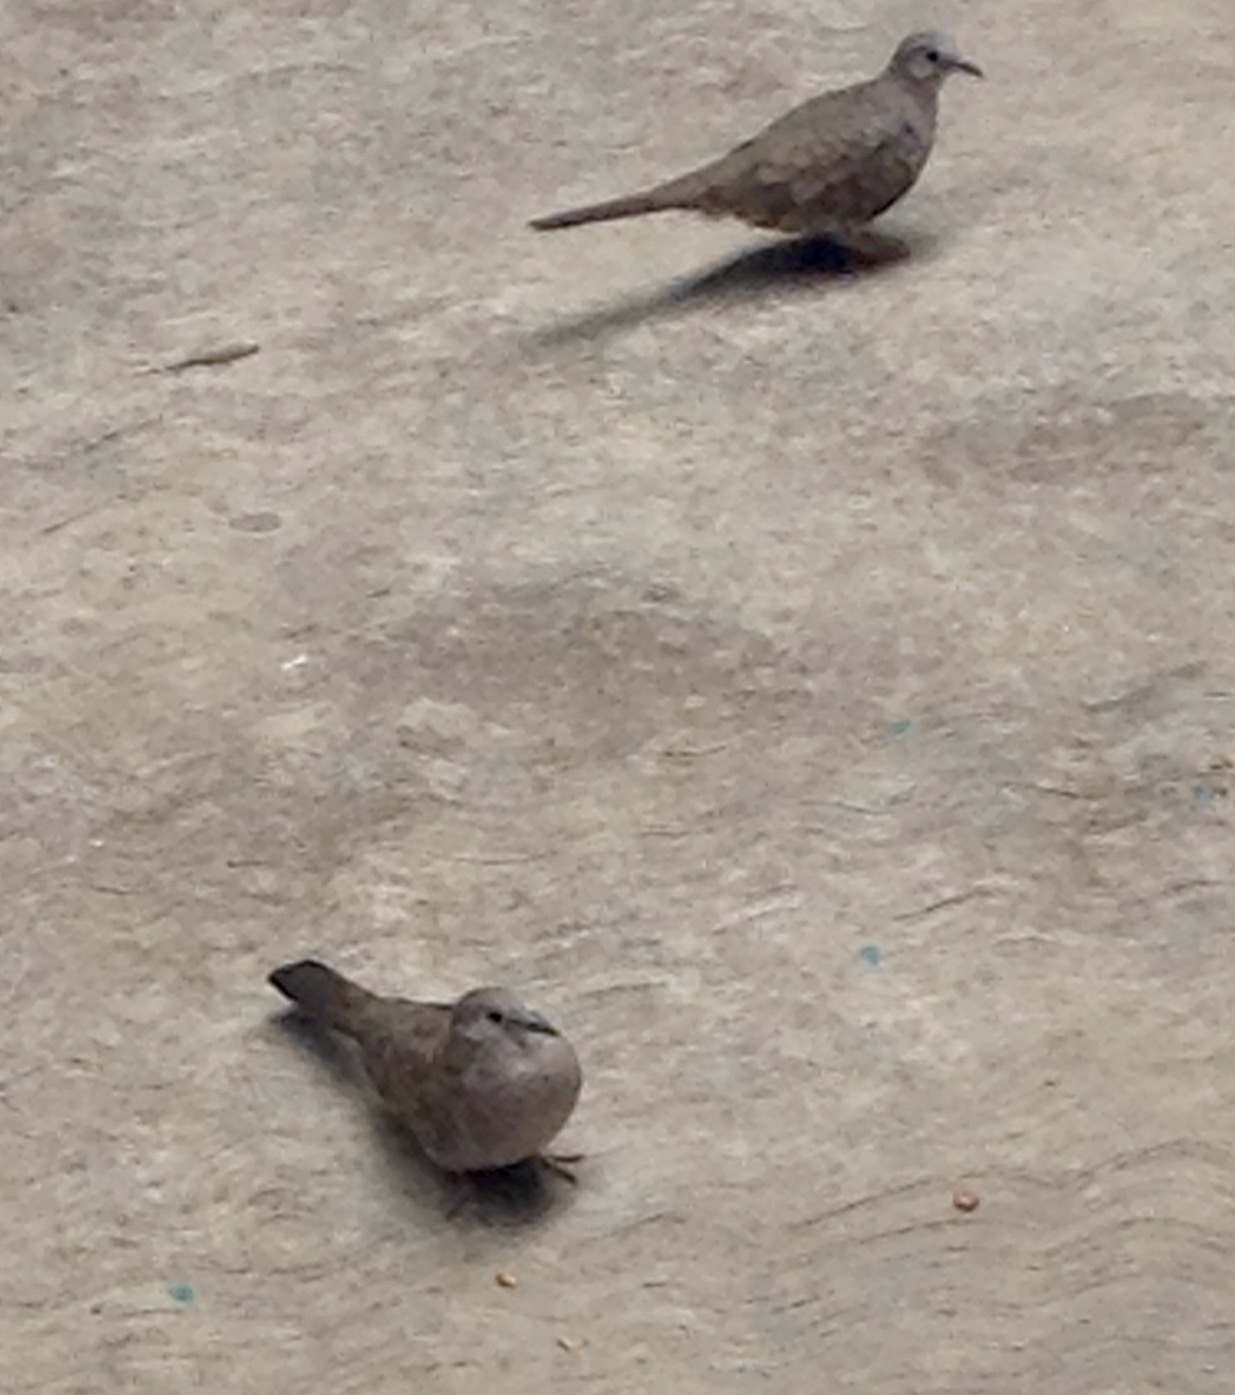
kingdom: Animalia
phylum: Chordata
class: Aves
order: Columbiformes
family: Columbidae
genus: Columbina
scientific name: Columbina inca
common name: Inca dove
